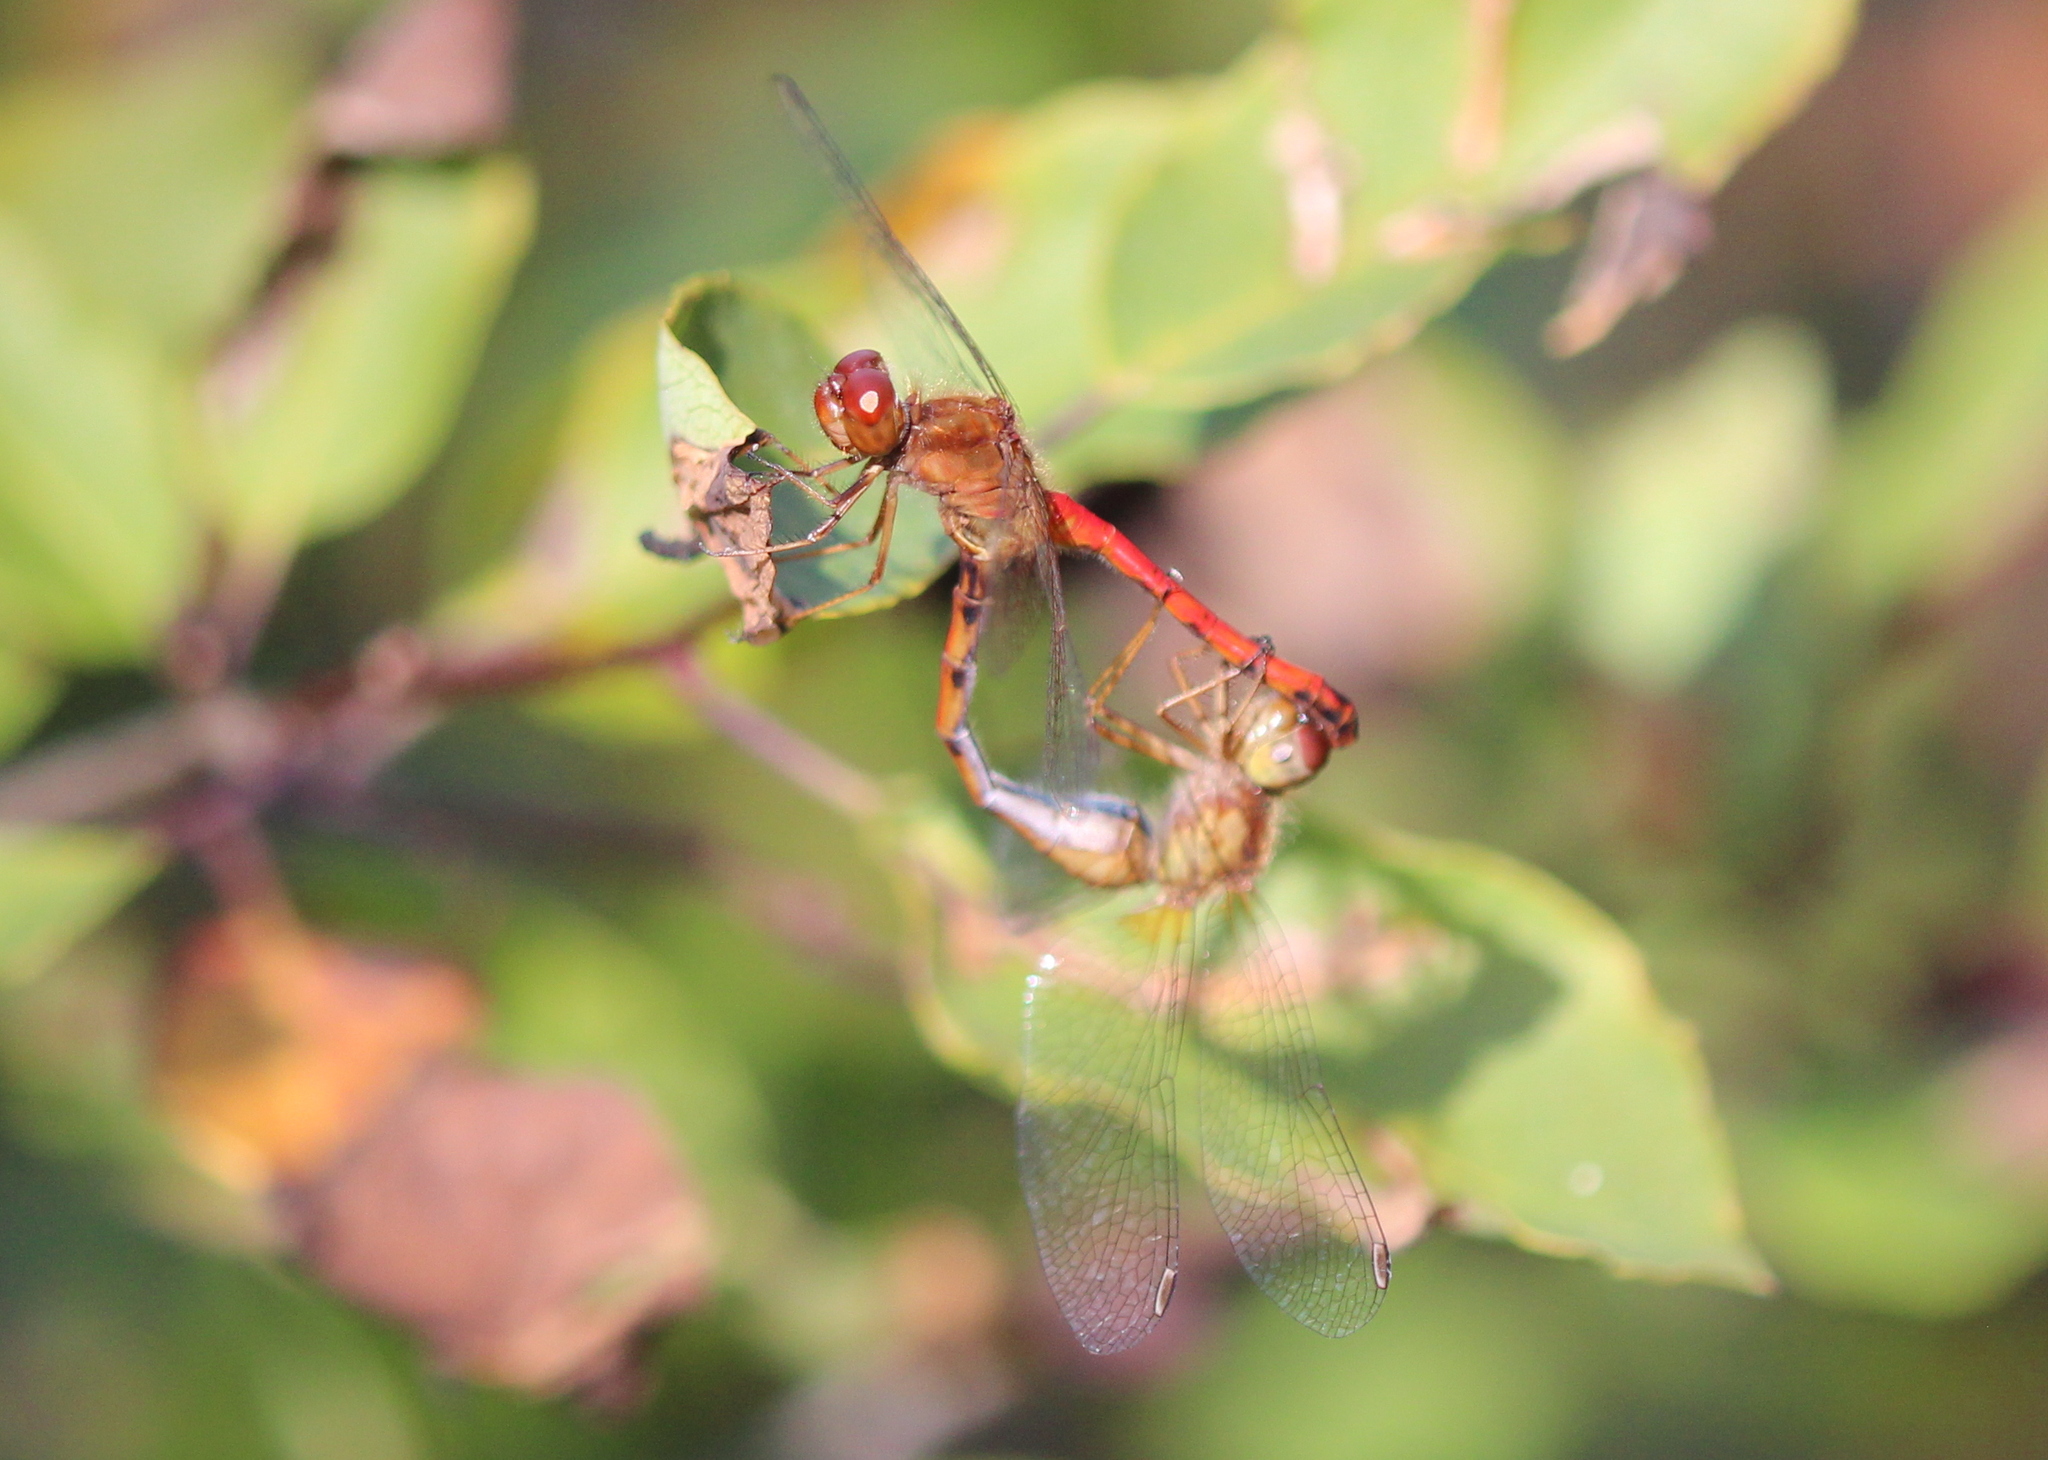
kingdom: Animalia
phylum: Arthropoda
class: Insecta
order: Odonata
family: Libellulidae
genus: Sympetrum
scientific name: Sympetrum vicinum
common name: Autumn meadowhawk
